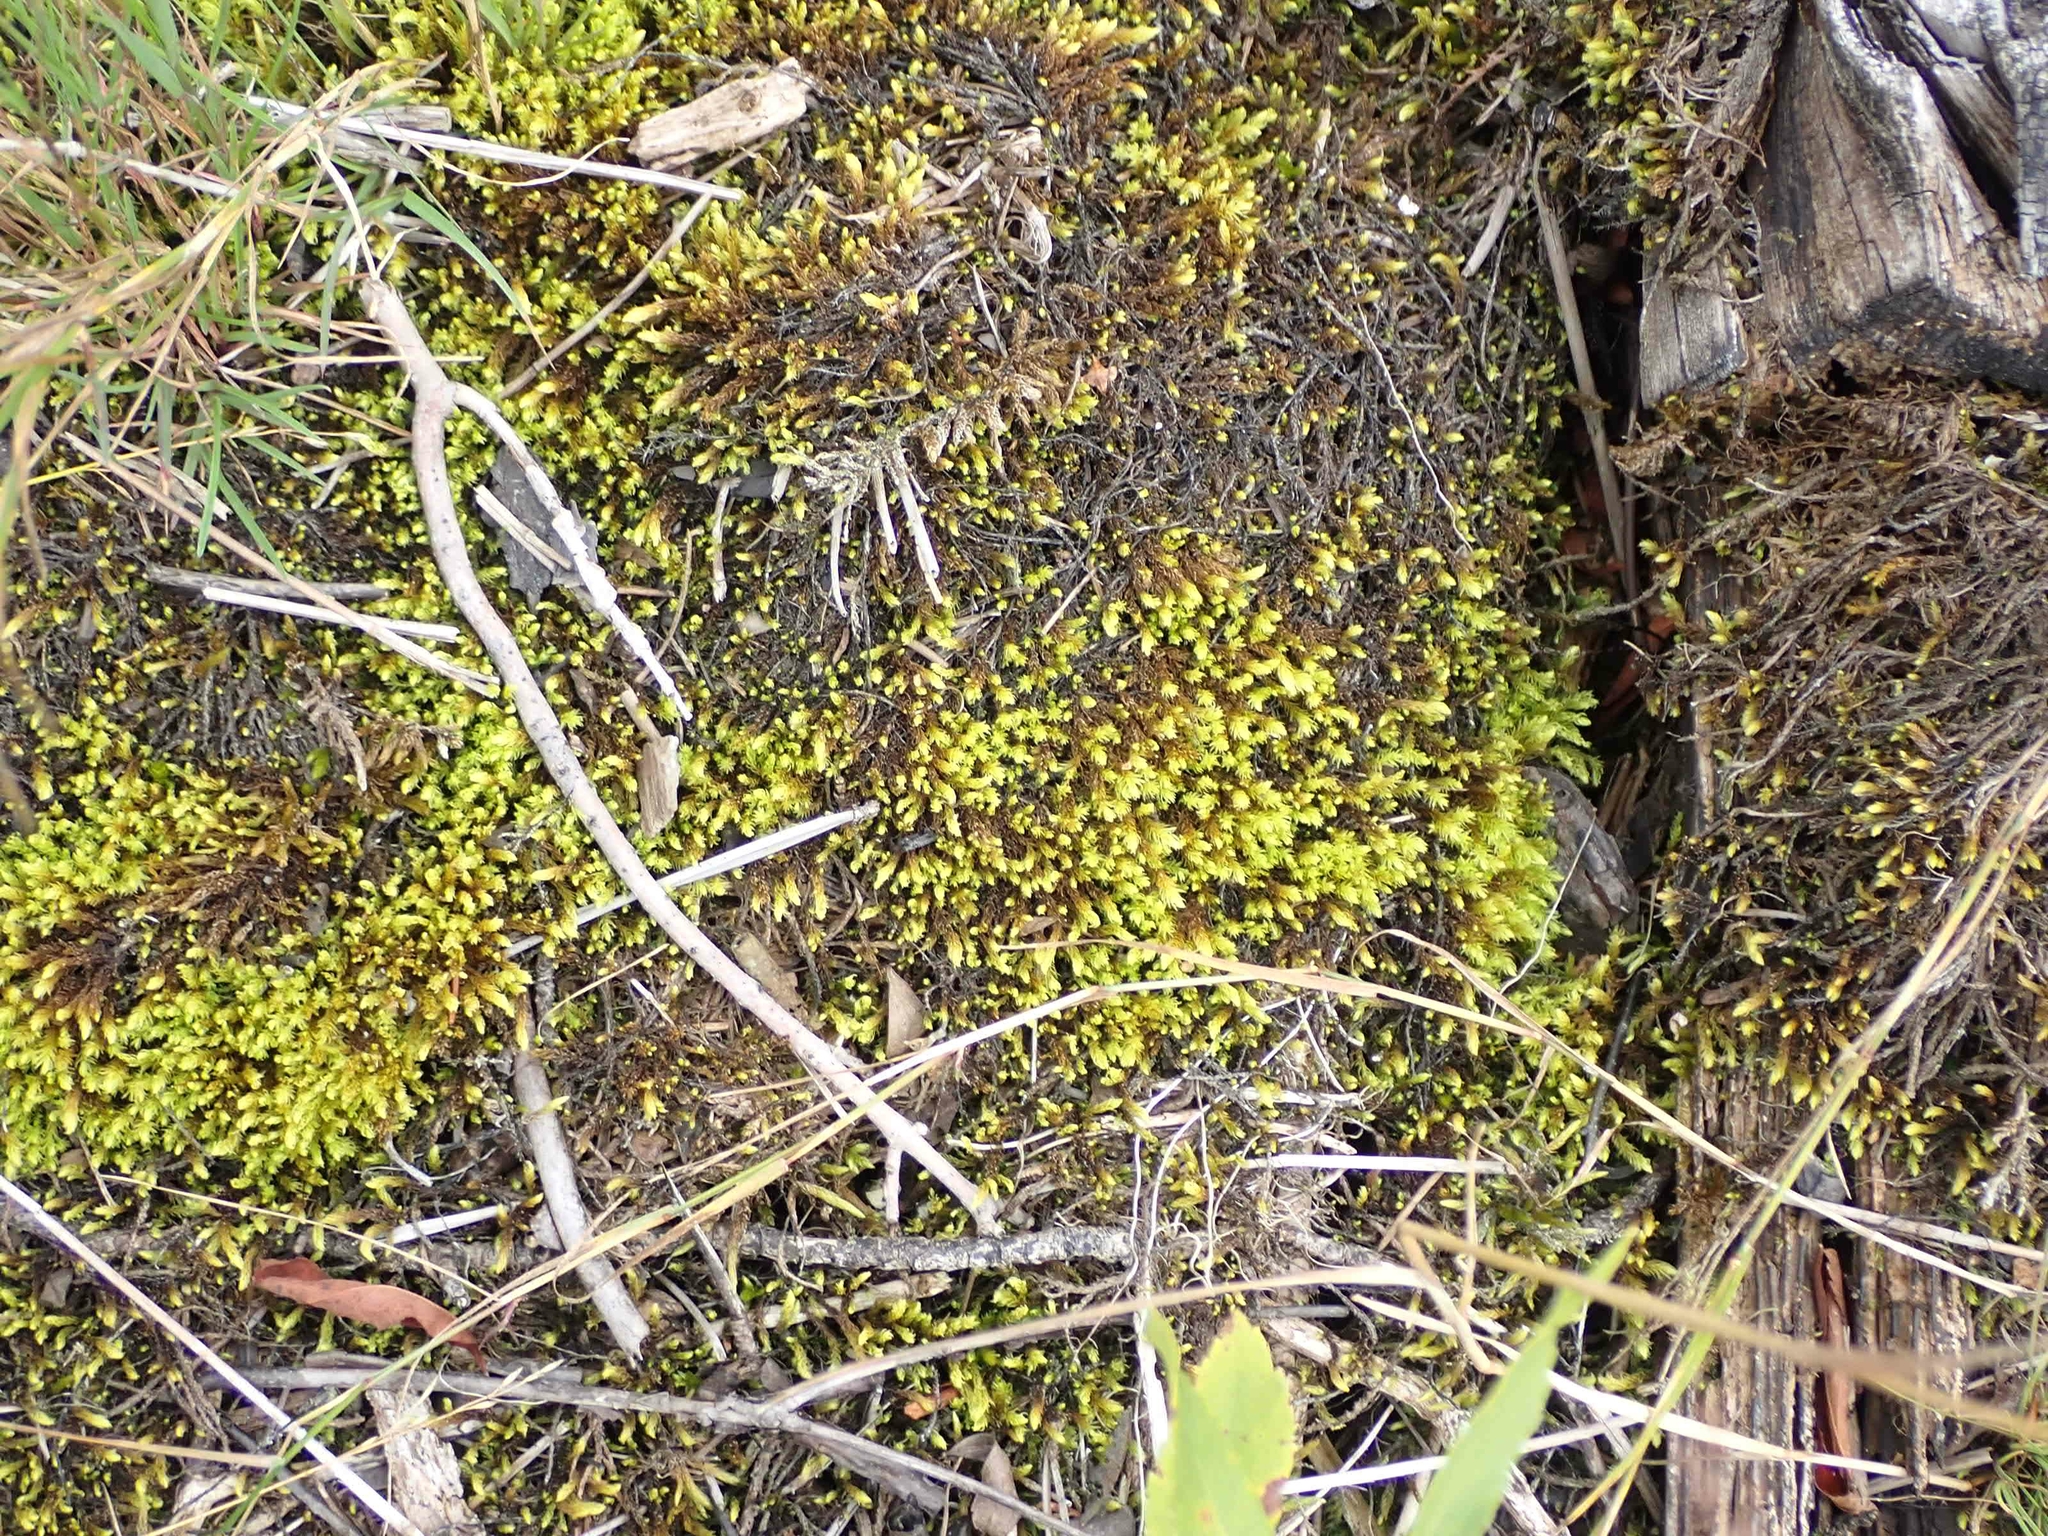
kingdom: Plantae
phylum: Bryophyta
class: Bryopsida
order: Aulacomniales
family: Aulacomniaceae
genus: Aulacomnium
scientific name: Aulacomnium palustre
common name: Bog groove-moss
